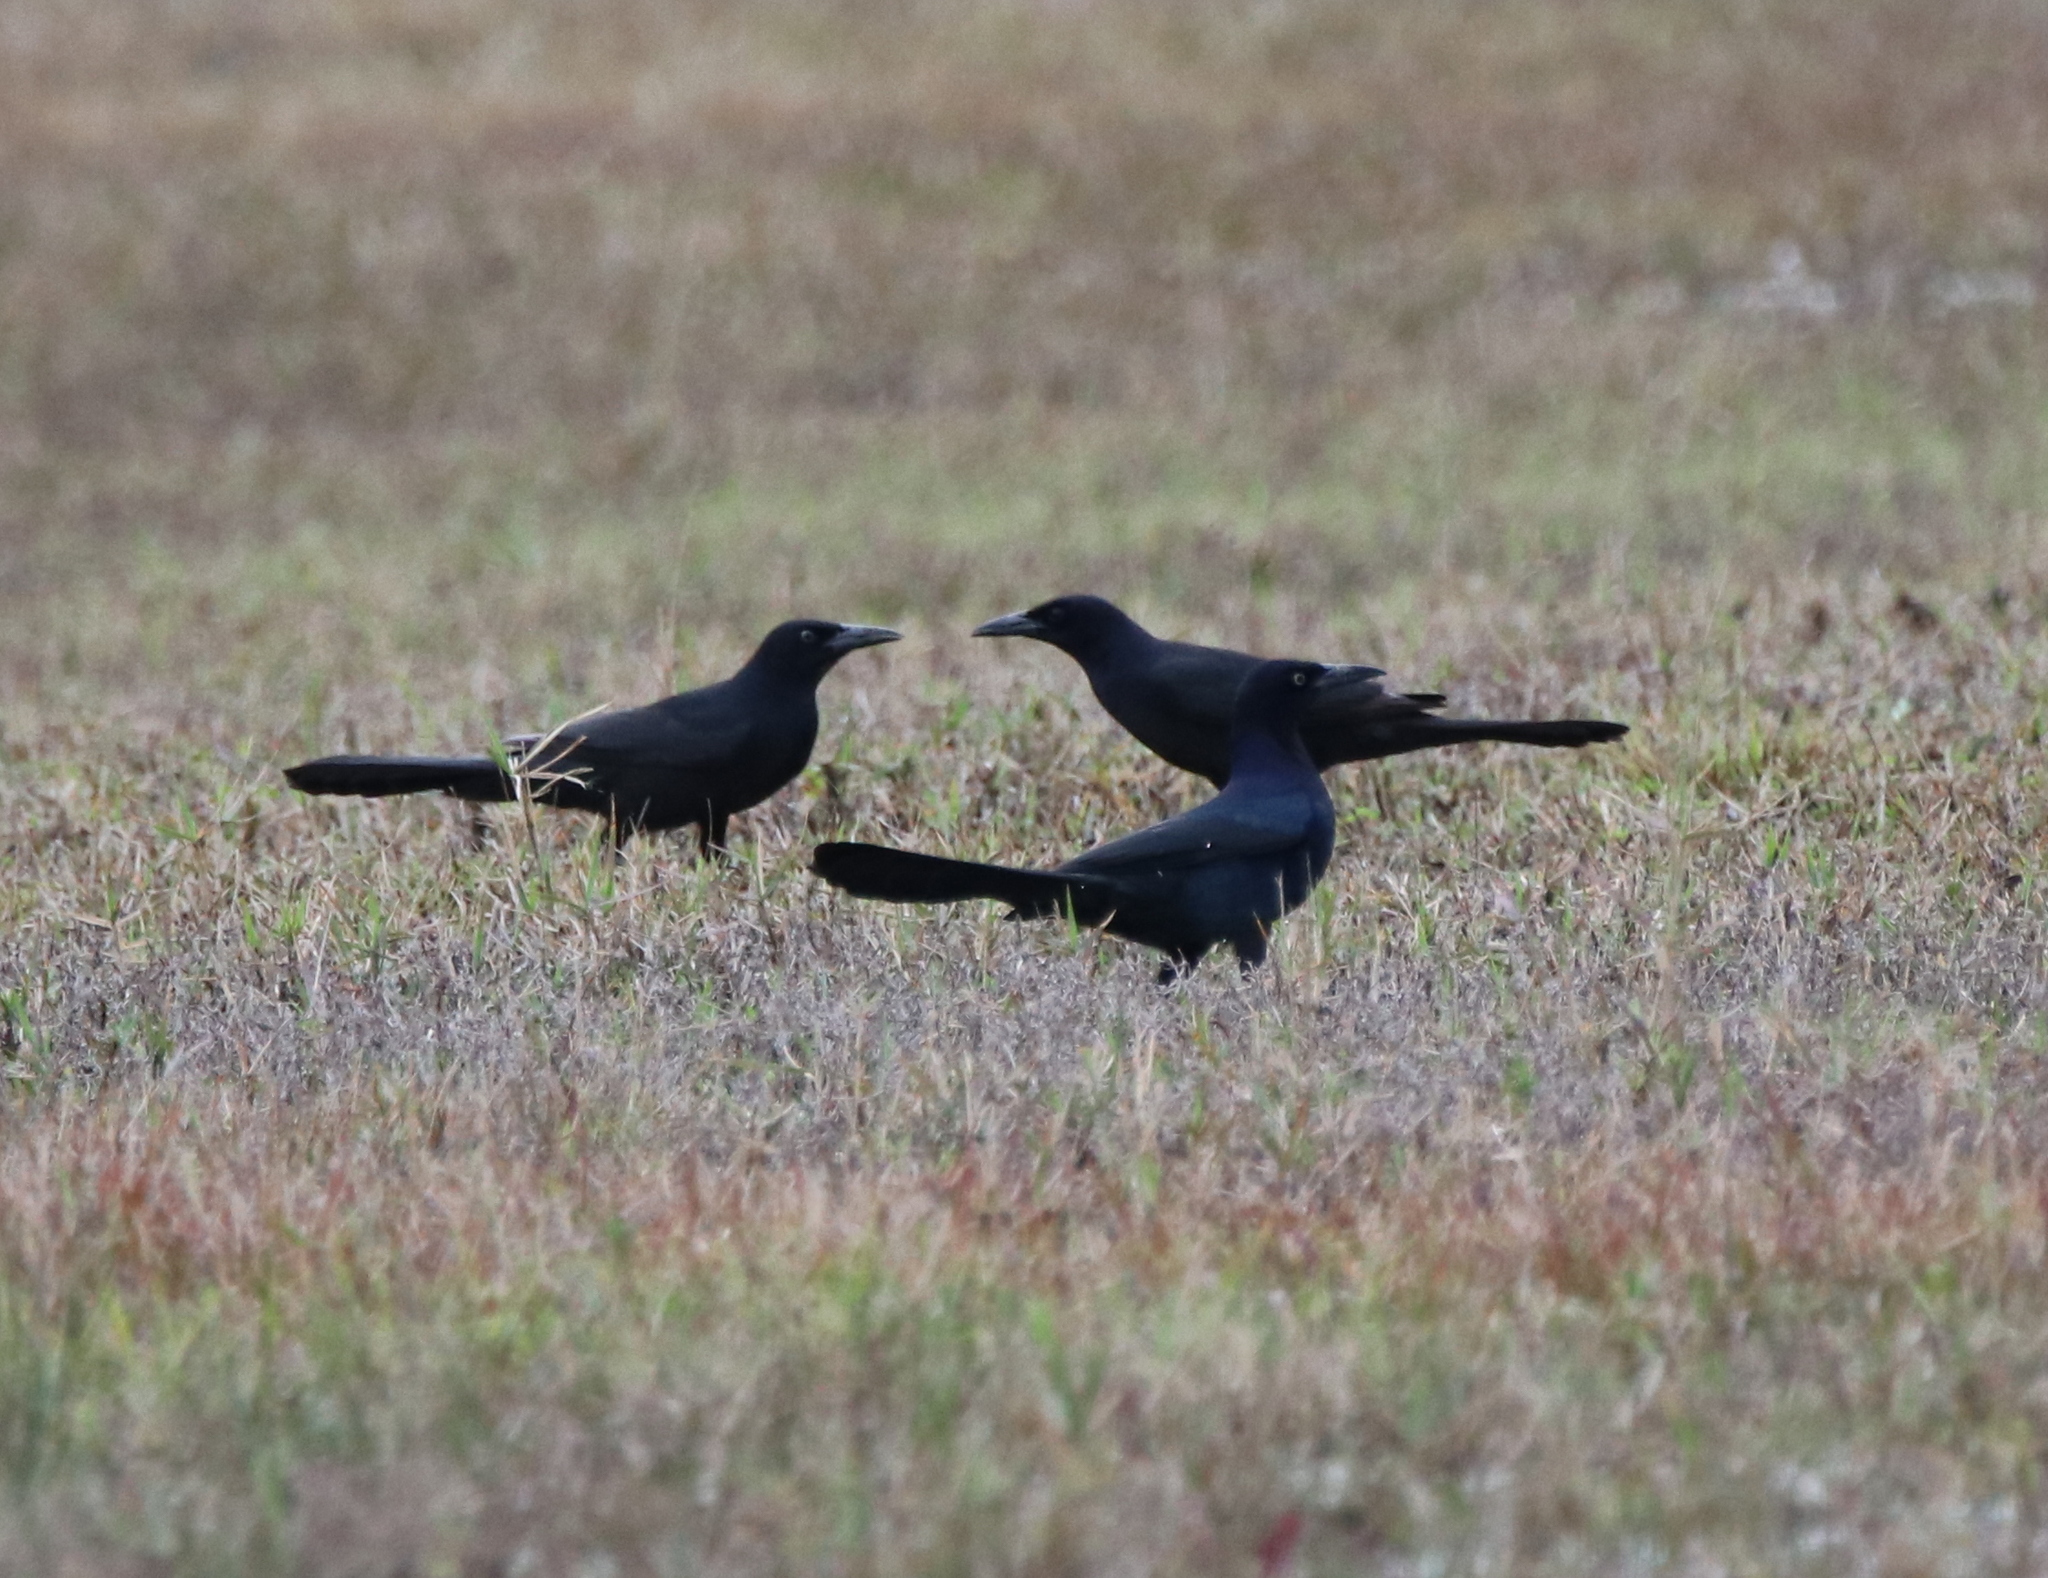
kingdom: Animalia
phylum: Chordata
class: Aves
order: Passeriformes
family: Icteridae
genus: Quiscalus
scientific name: Quiscalus major
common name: Boat-tailed grackle
